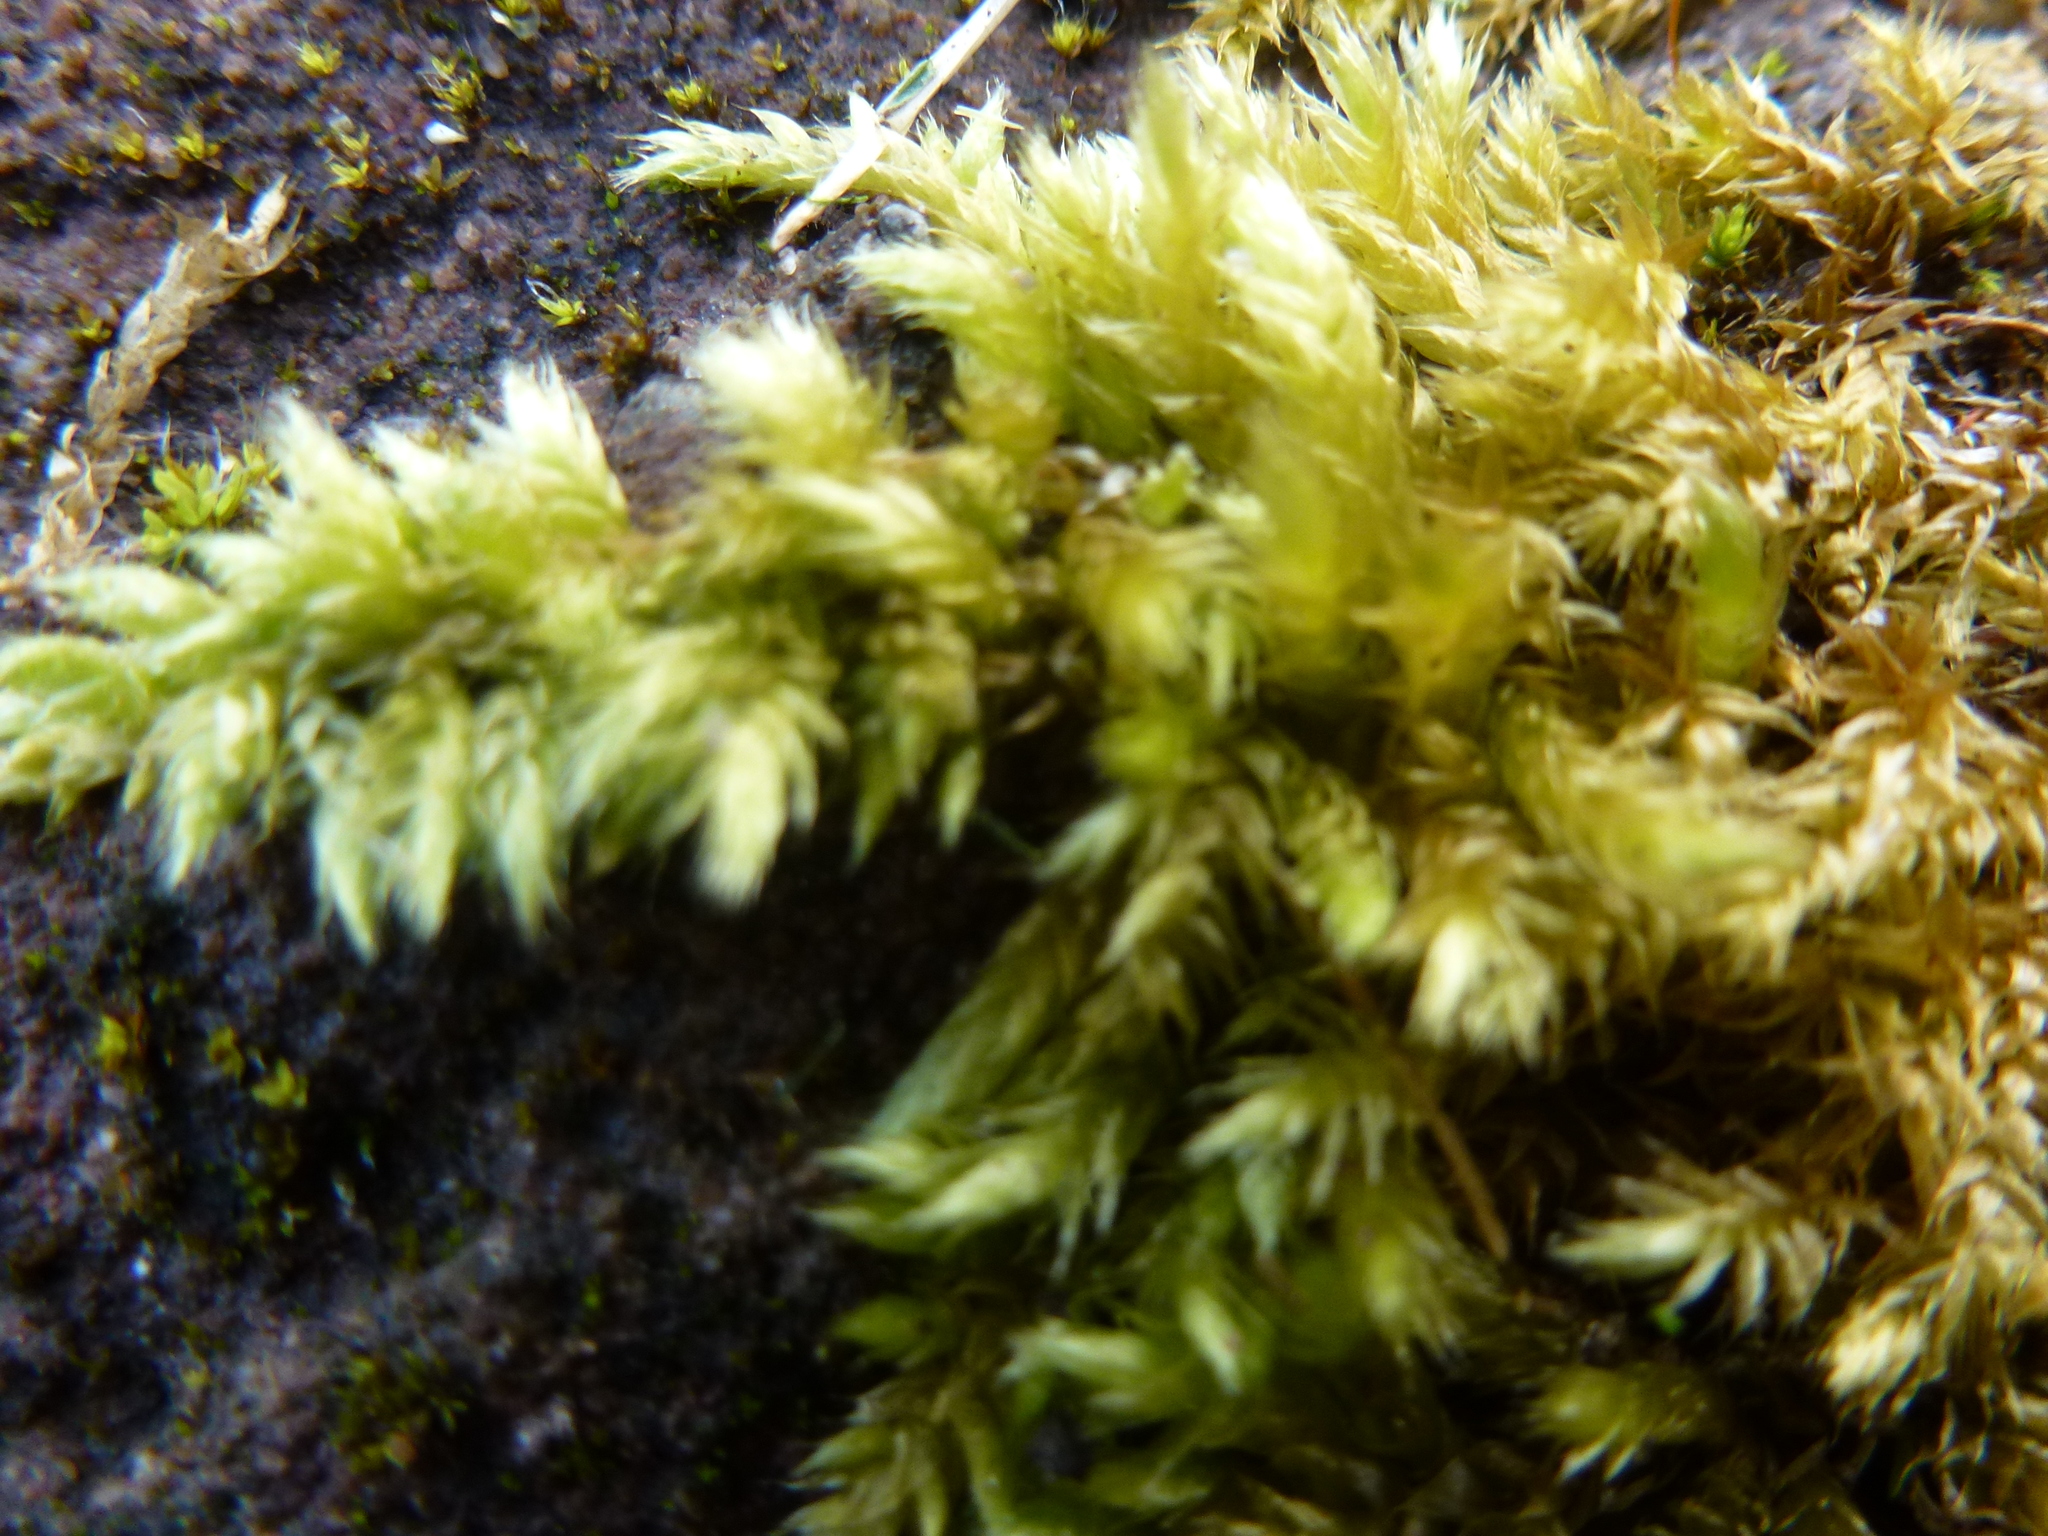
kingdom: Plantae
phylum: Bryophyta
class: Bryopsida
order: Hypnales
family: Brachytheciaceae
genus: Brachythecium
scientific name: Brachythecium rutabulum
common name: Rough-stalked feather-moss
